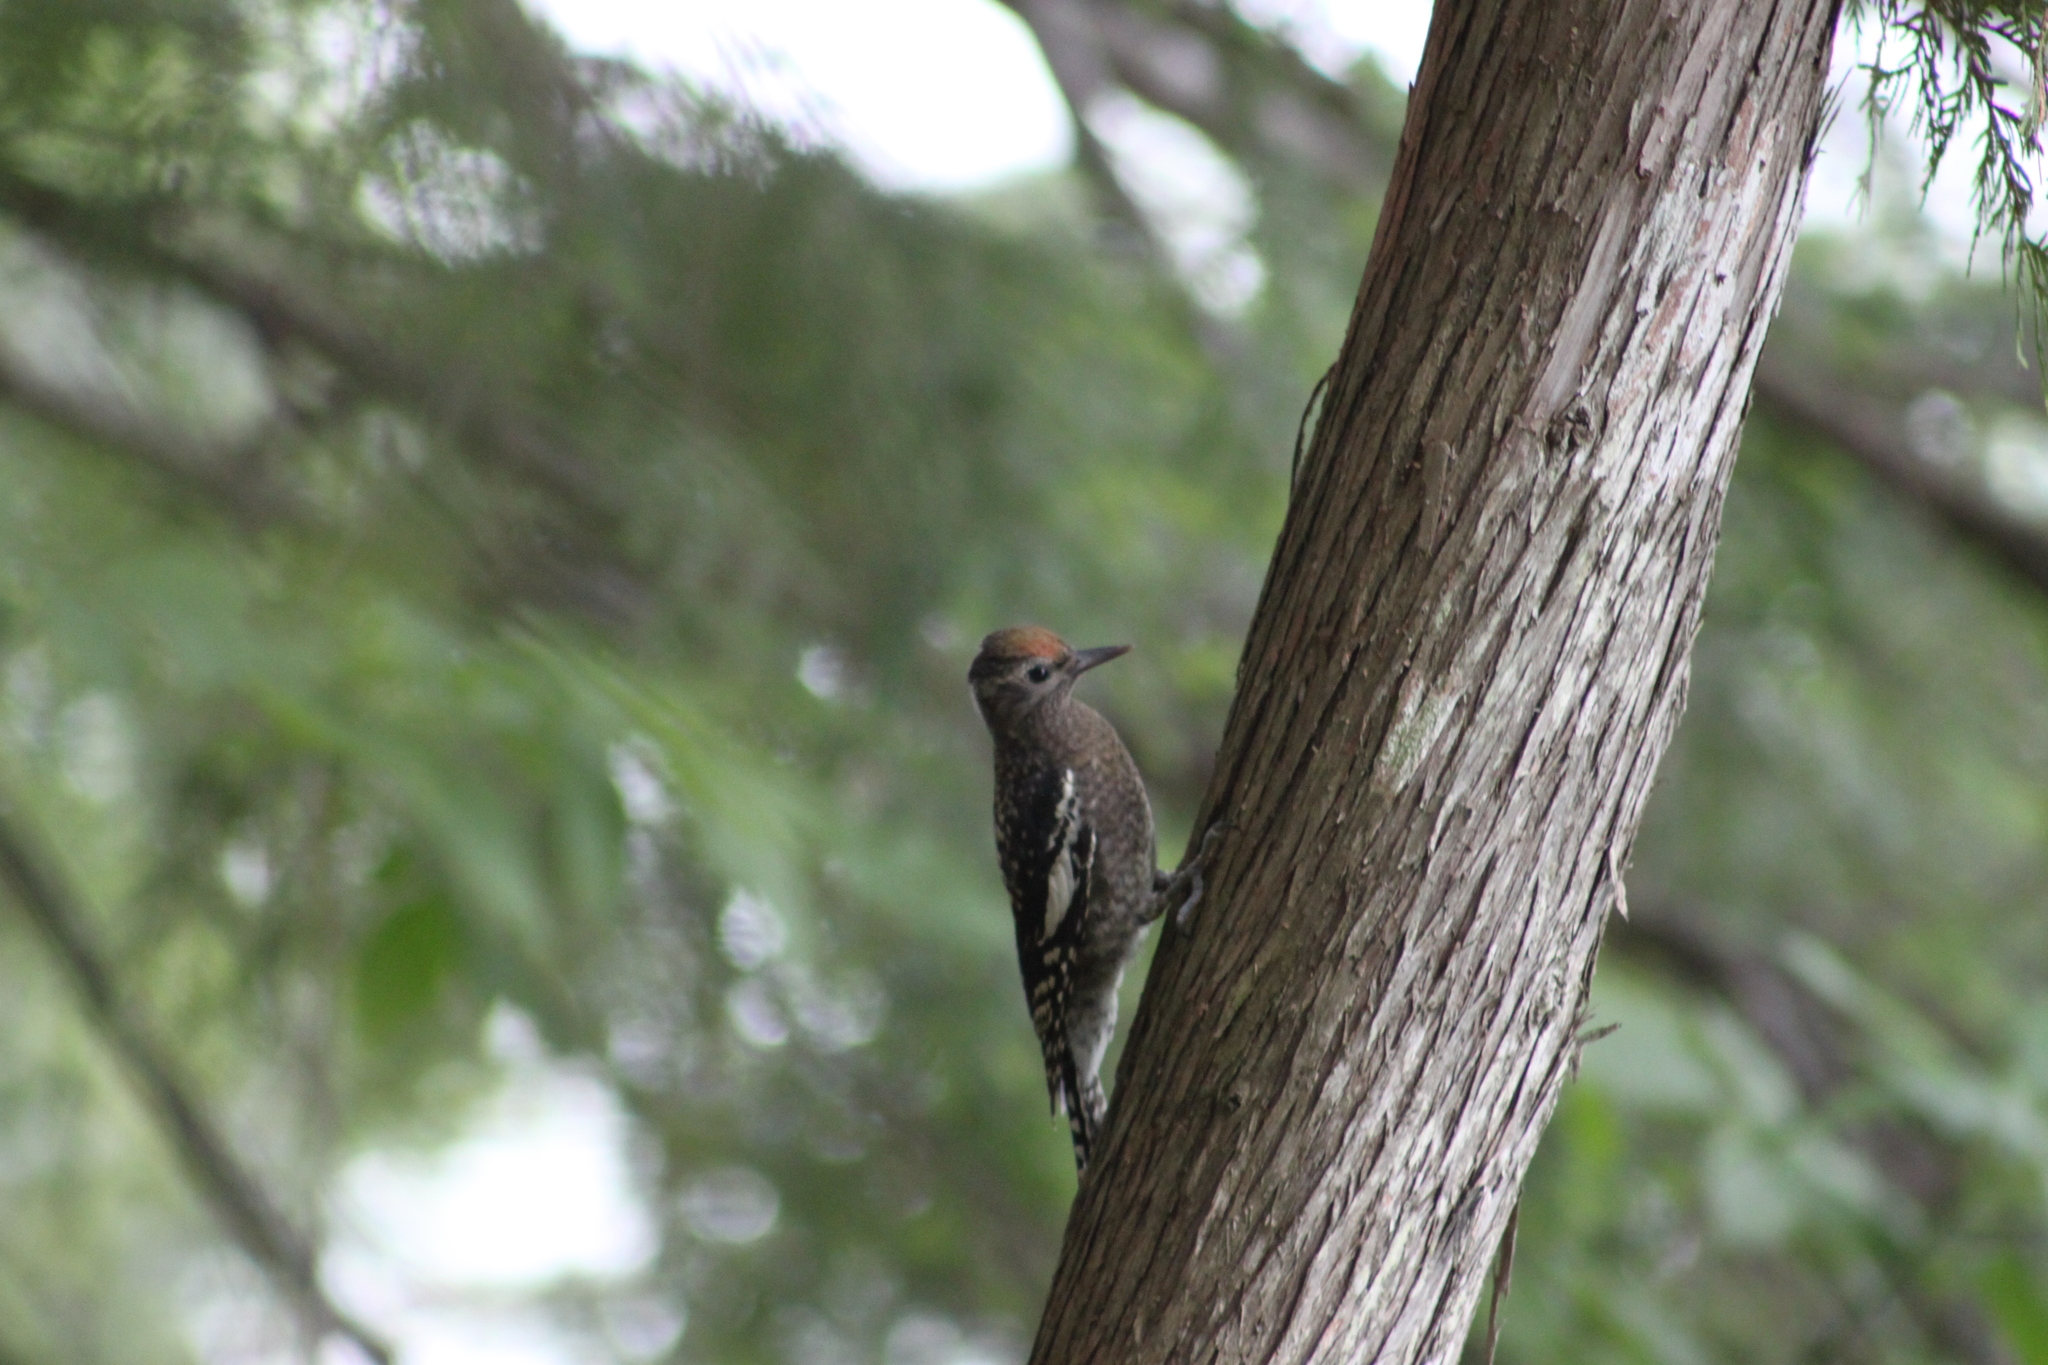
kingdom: Animalia
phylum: Chordata
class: Aves
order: Piciformes
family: Picidae
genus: Sphyrapicus
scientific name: Sphyrapicus varius
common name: Yellow-bellied sapsucker
